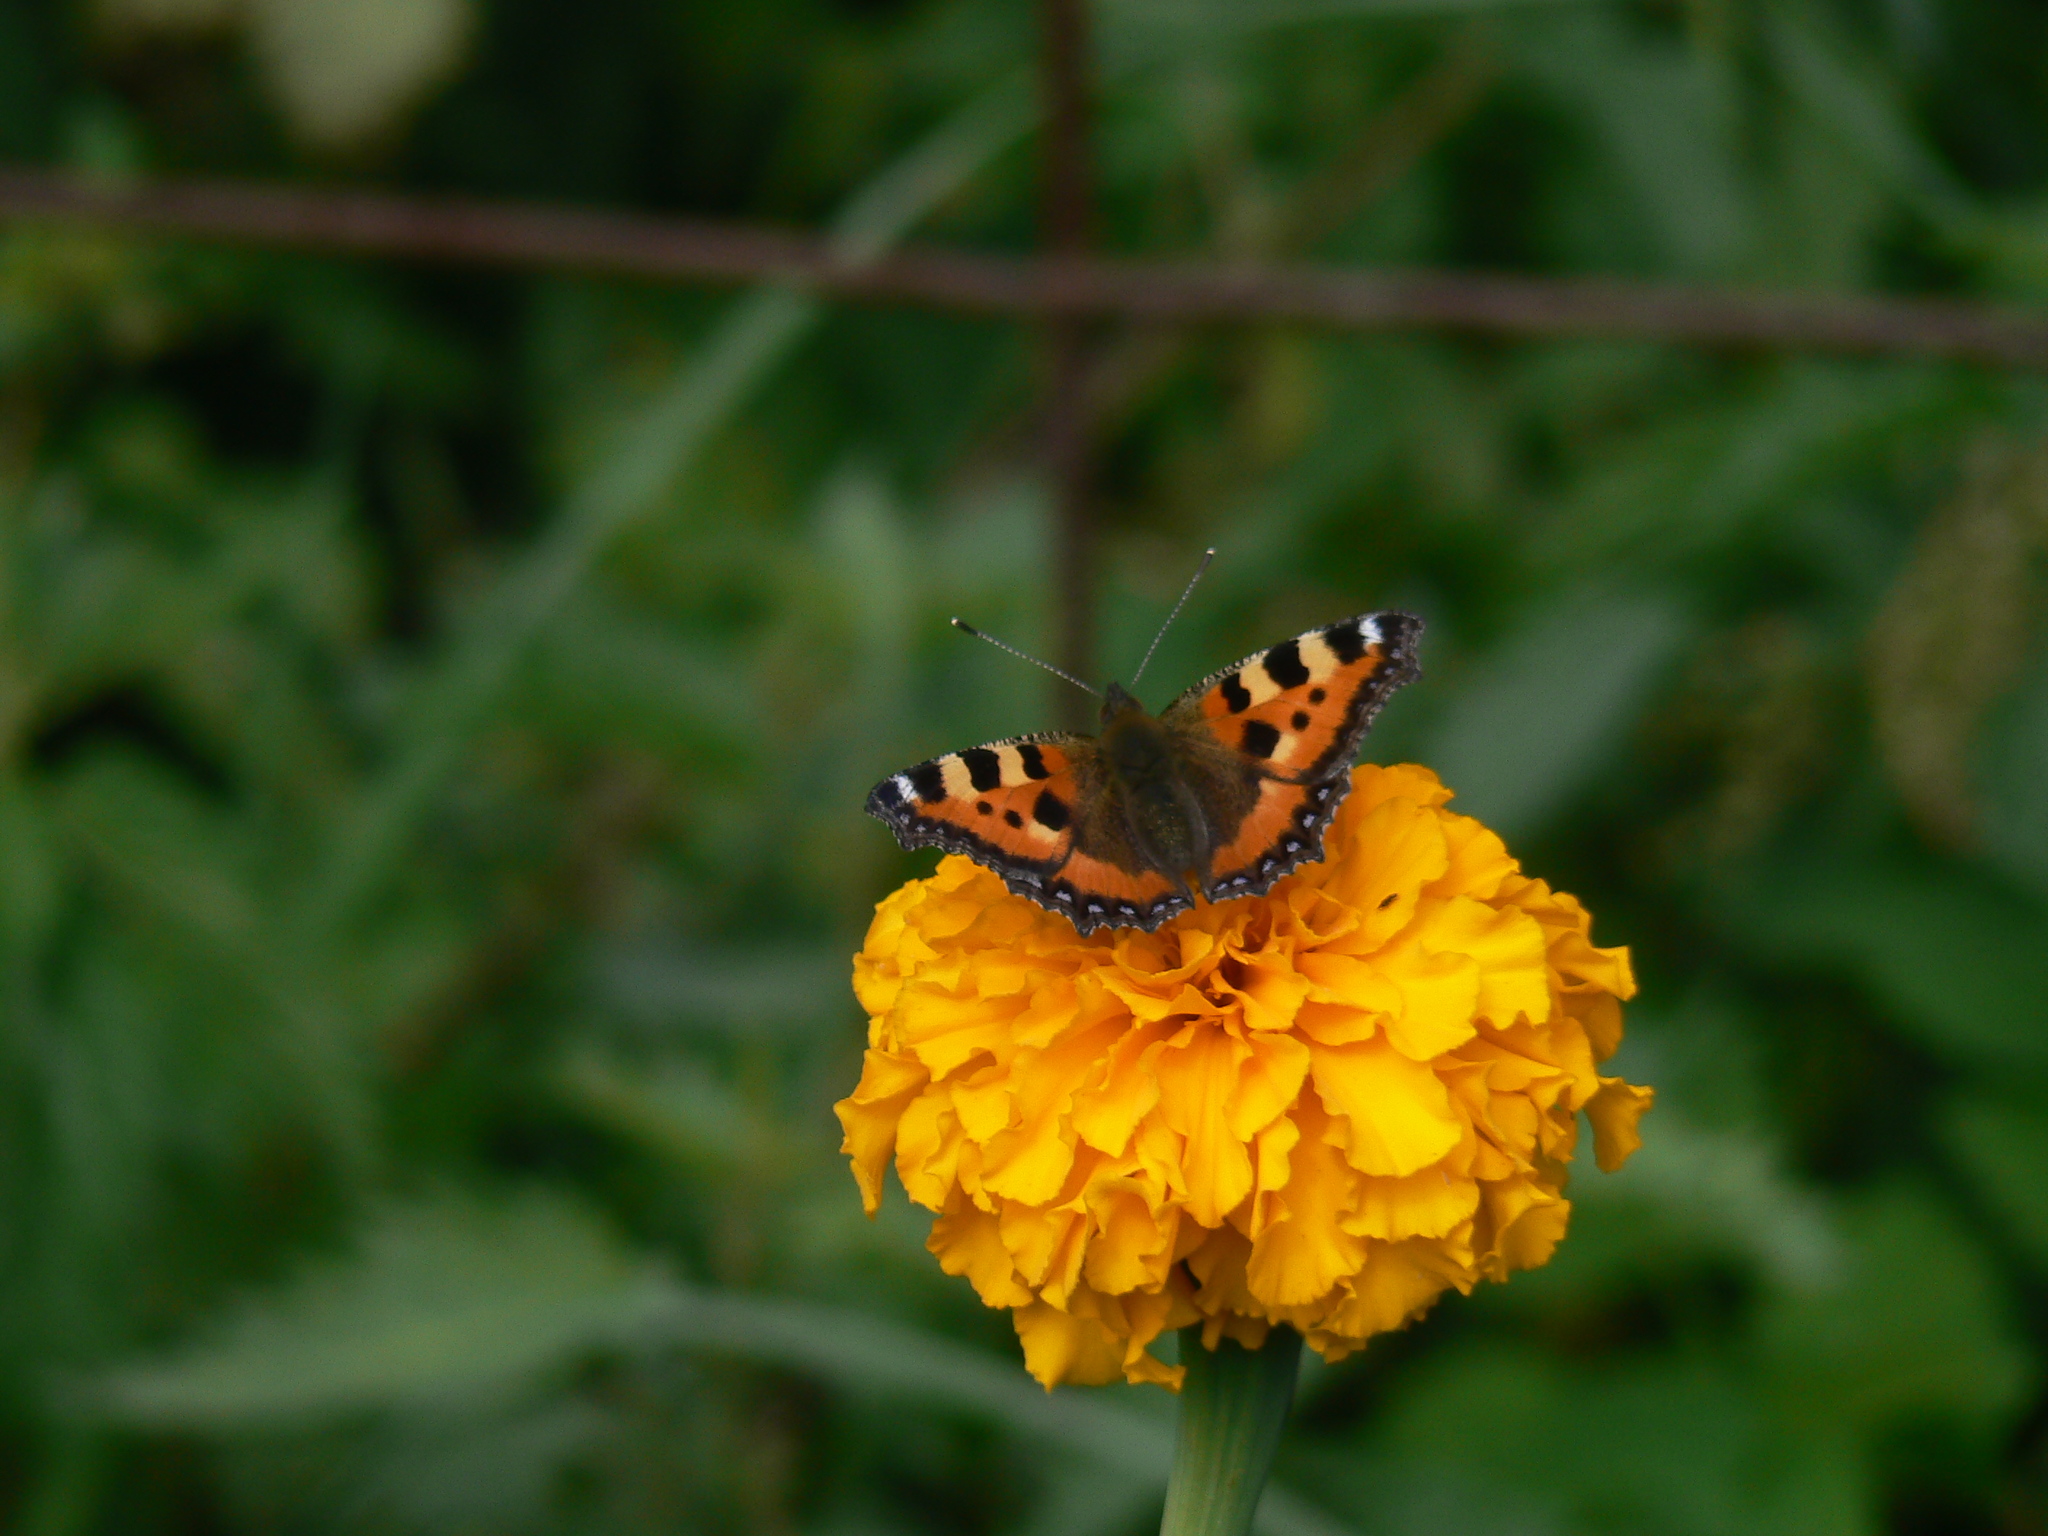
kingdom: Animalia
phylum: Arthropoda
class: Insecta
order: Lepidoptera
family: Nymphalidae
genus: Aglais
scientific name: Aglais urticae
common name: Small tortoiseshell
